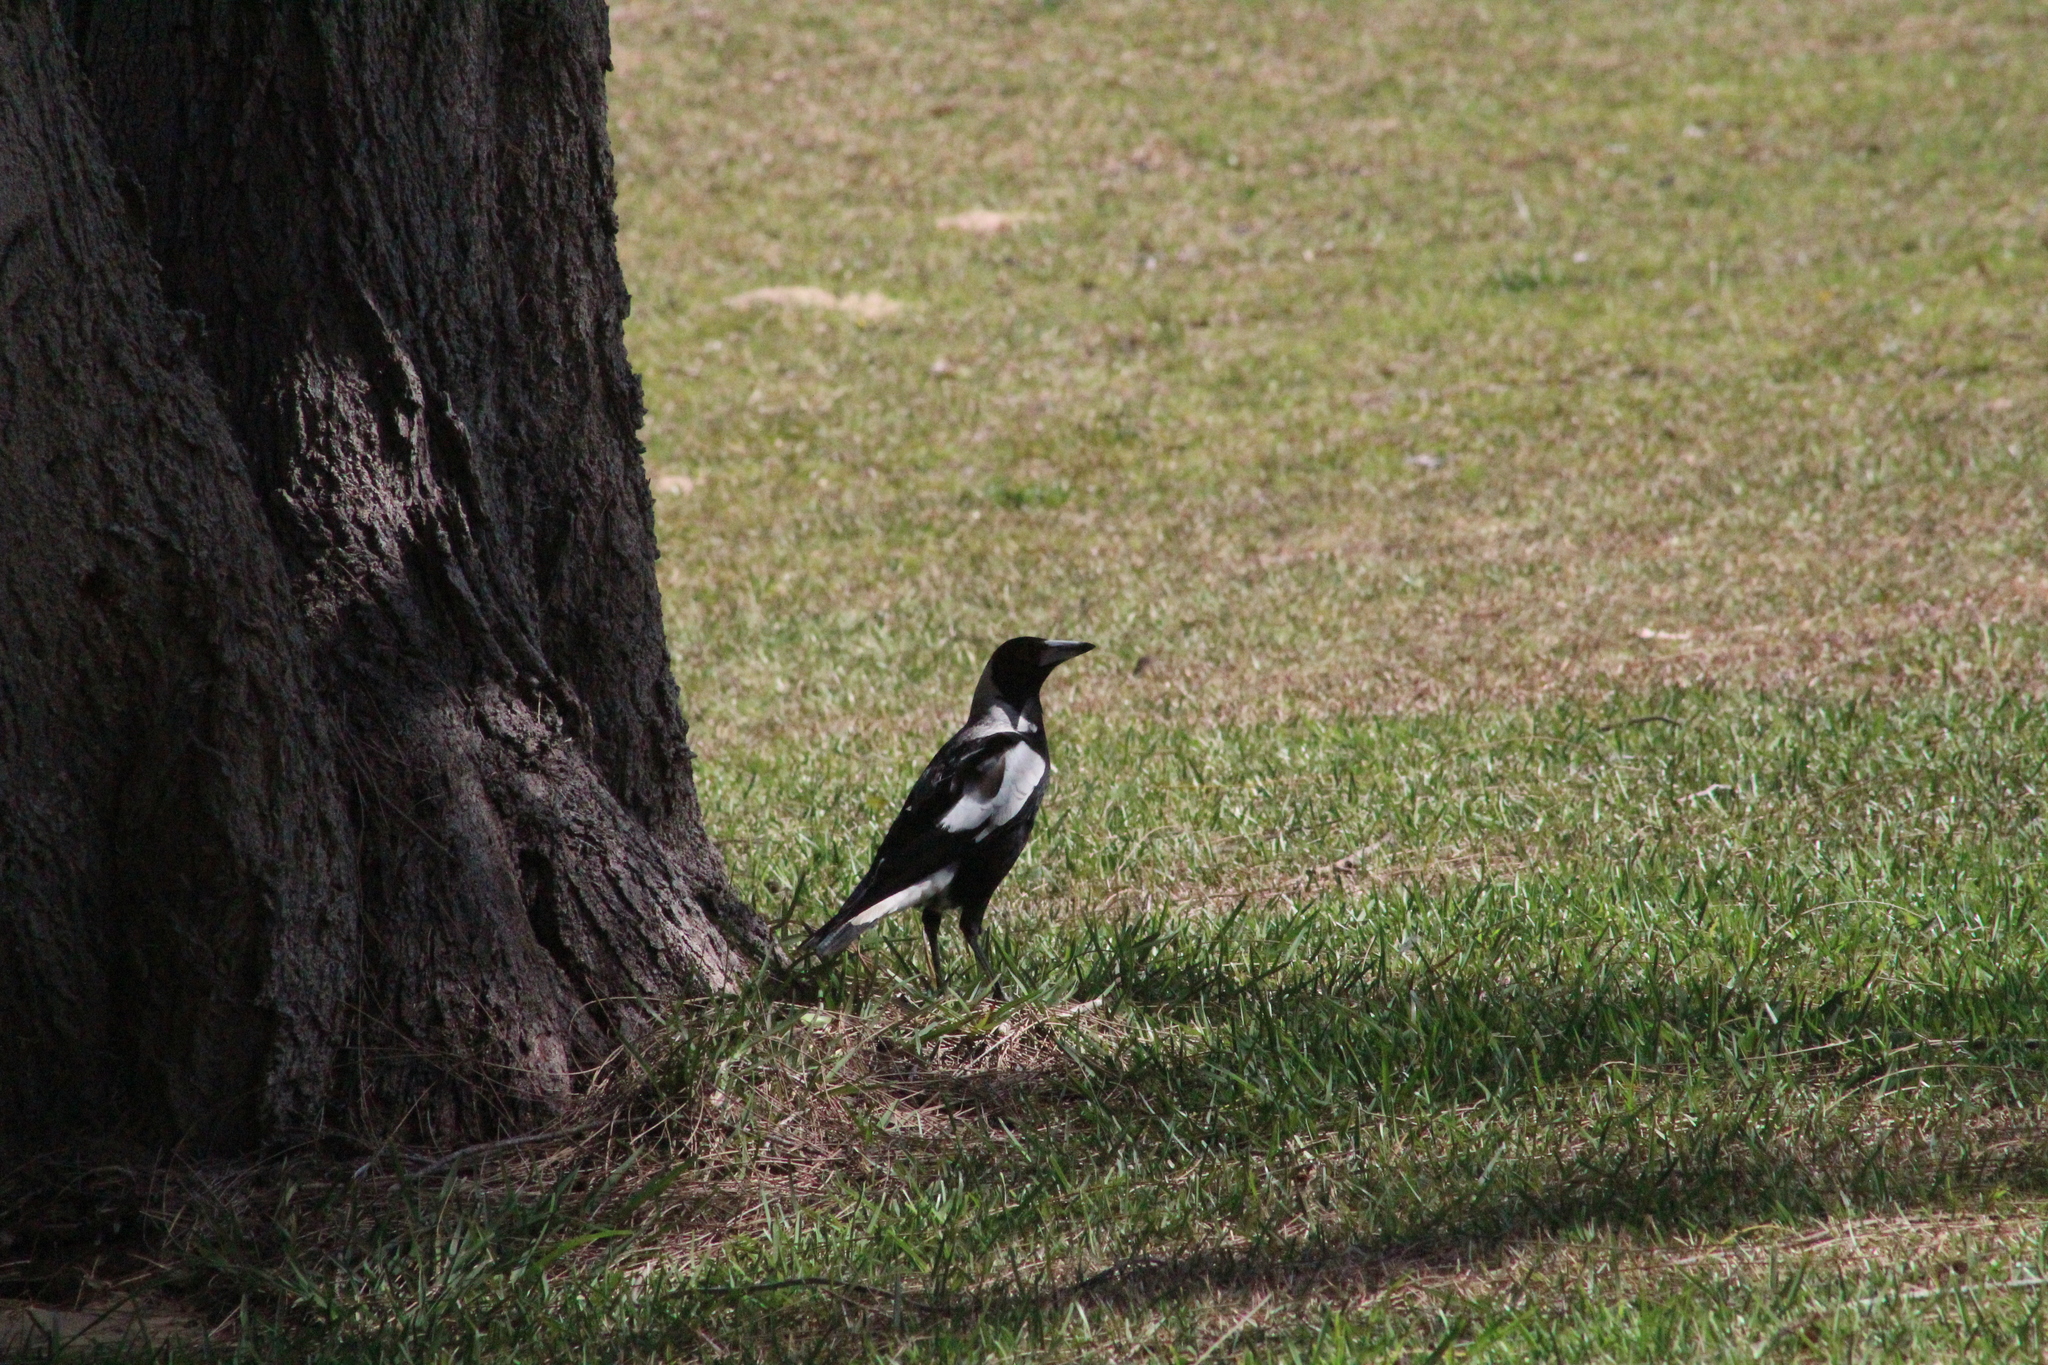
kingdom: Animalia
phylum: Chordata
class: Aves
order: Passeriformes
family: Cracticidae
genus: Gymnorhina
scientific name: Gymnorhina tibicen
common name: Australian magpie
